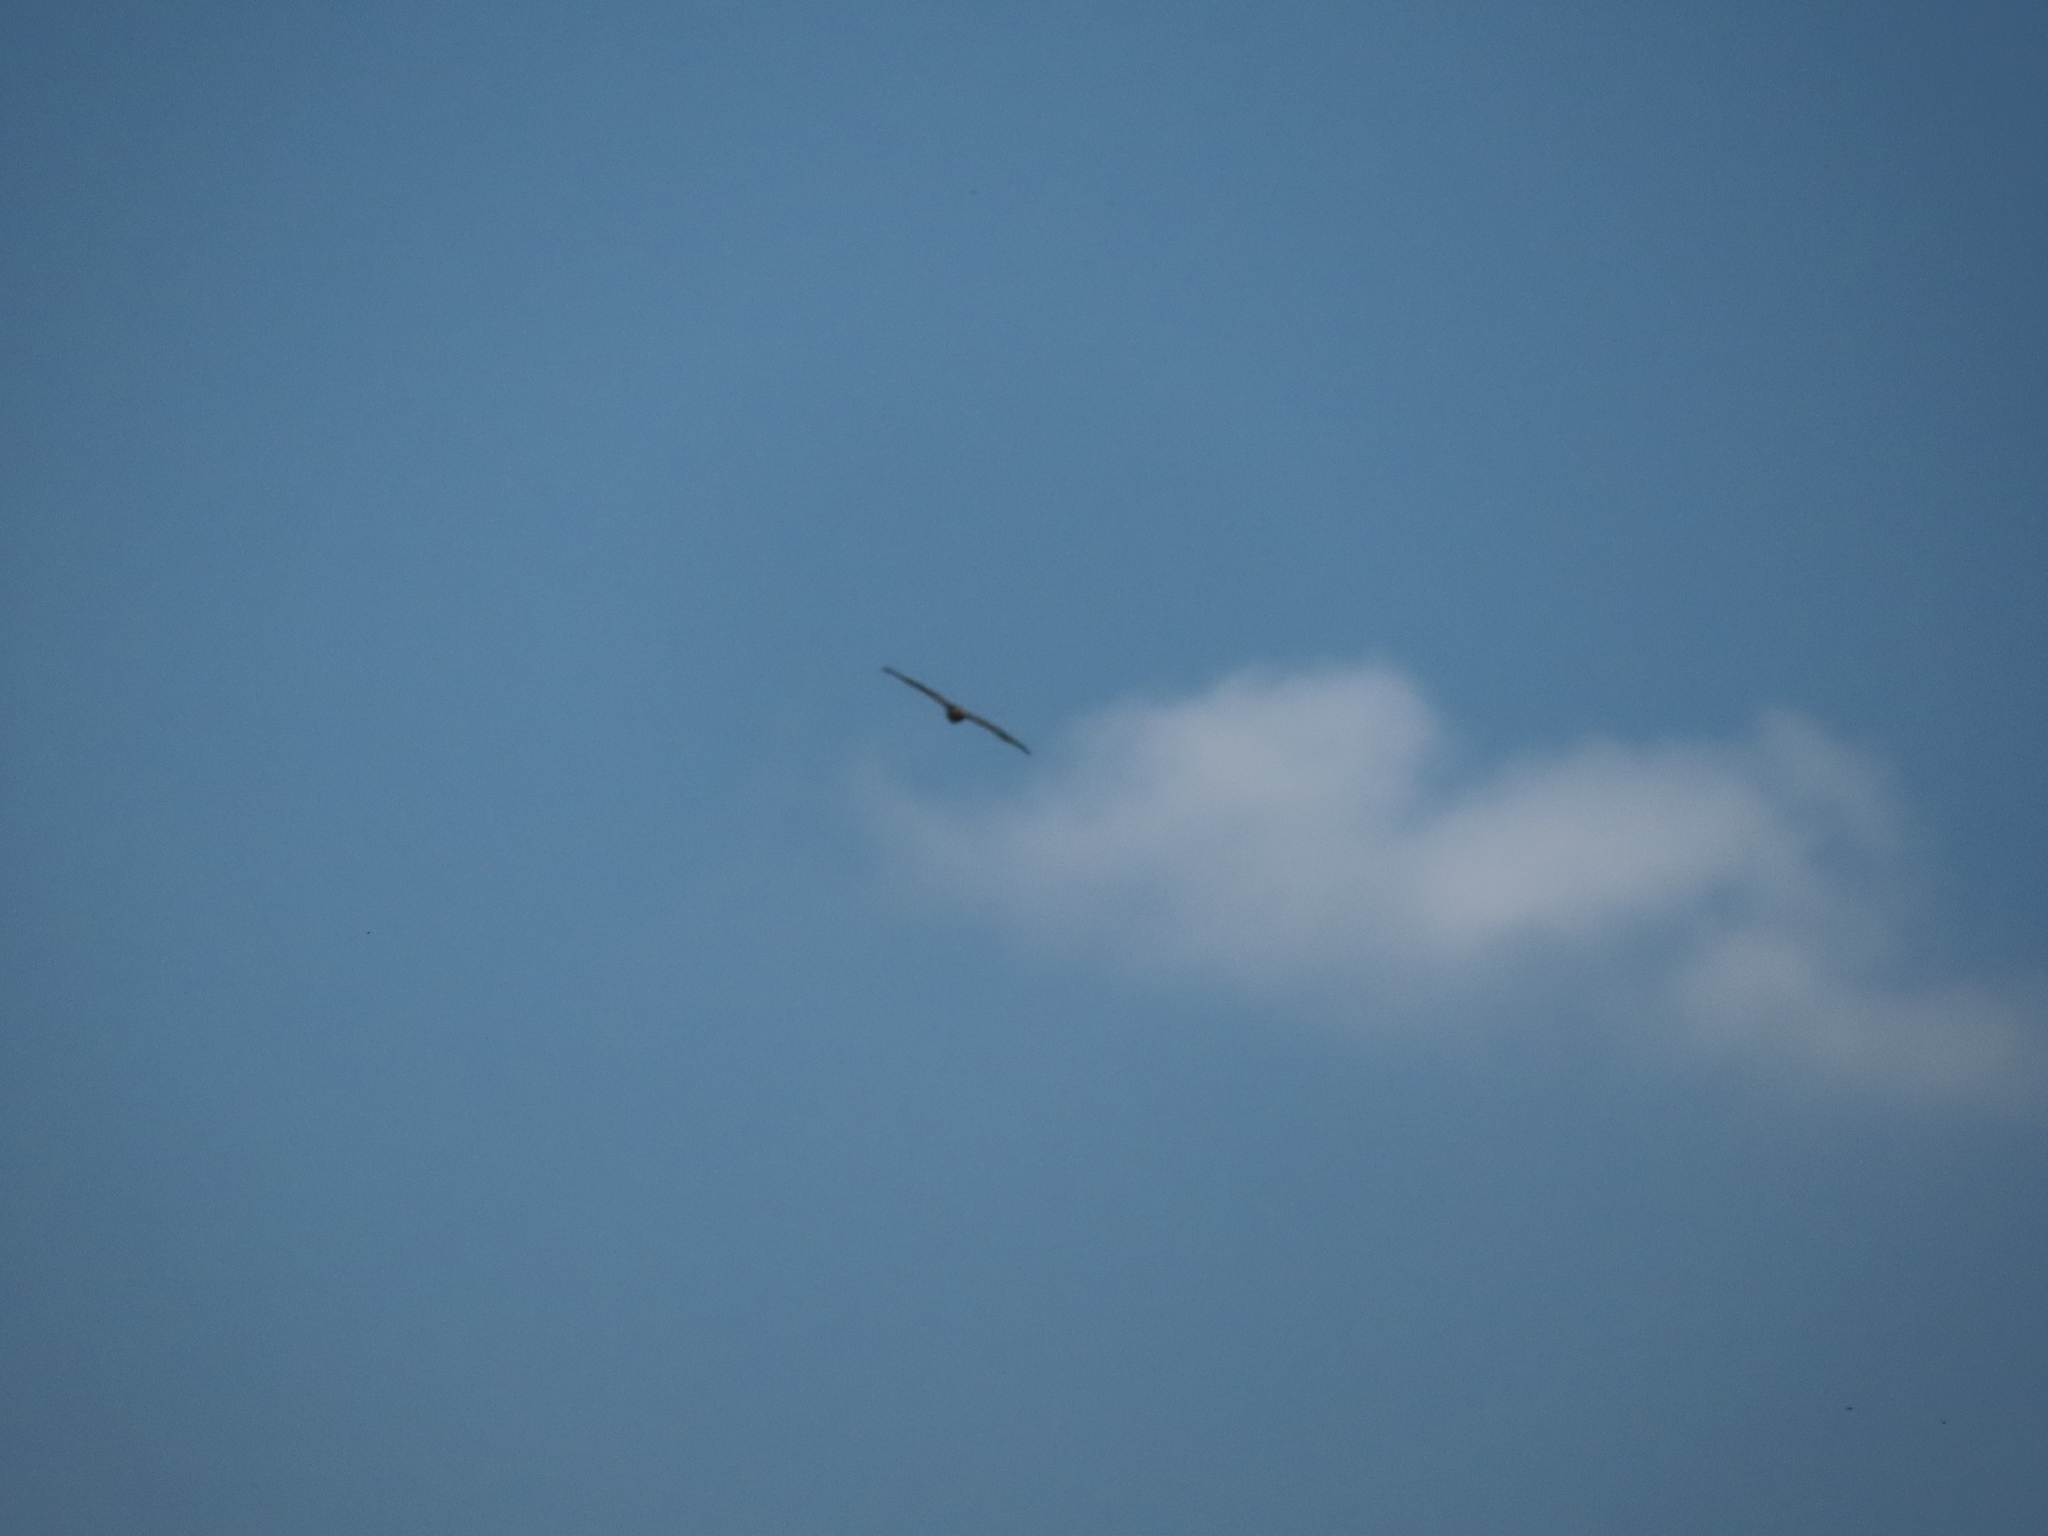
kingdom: Animalia
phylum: Chordata
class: Aves
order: Accipitriformes
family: Cathartidae
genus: Cathartes
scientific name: Cathartes aura
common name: Turkey vulture
